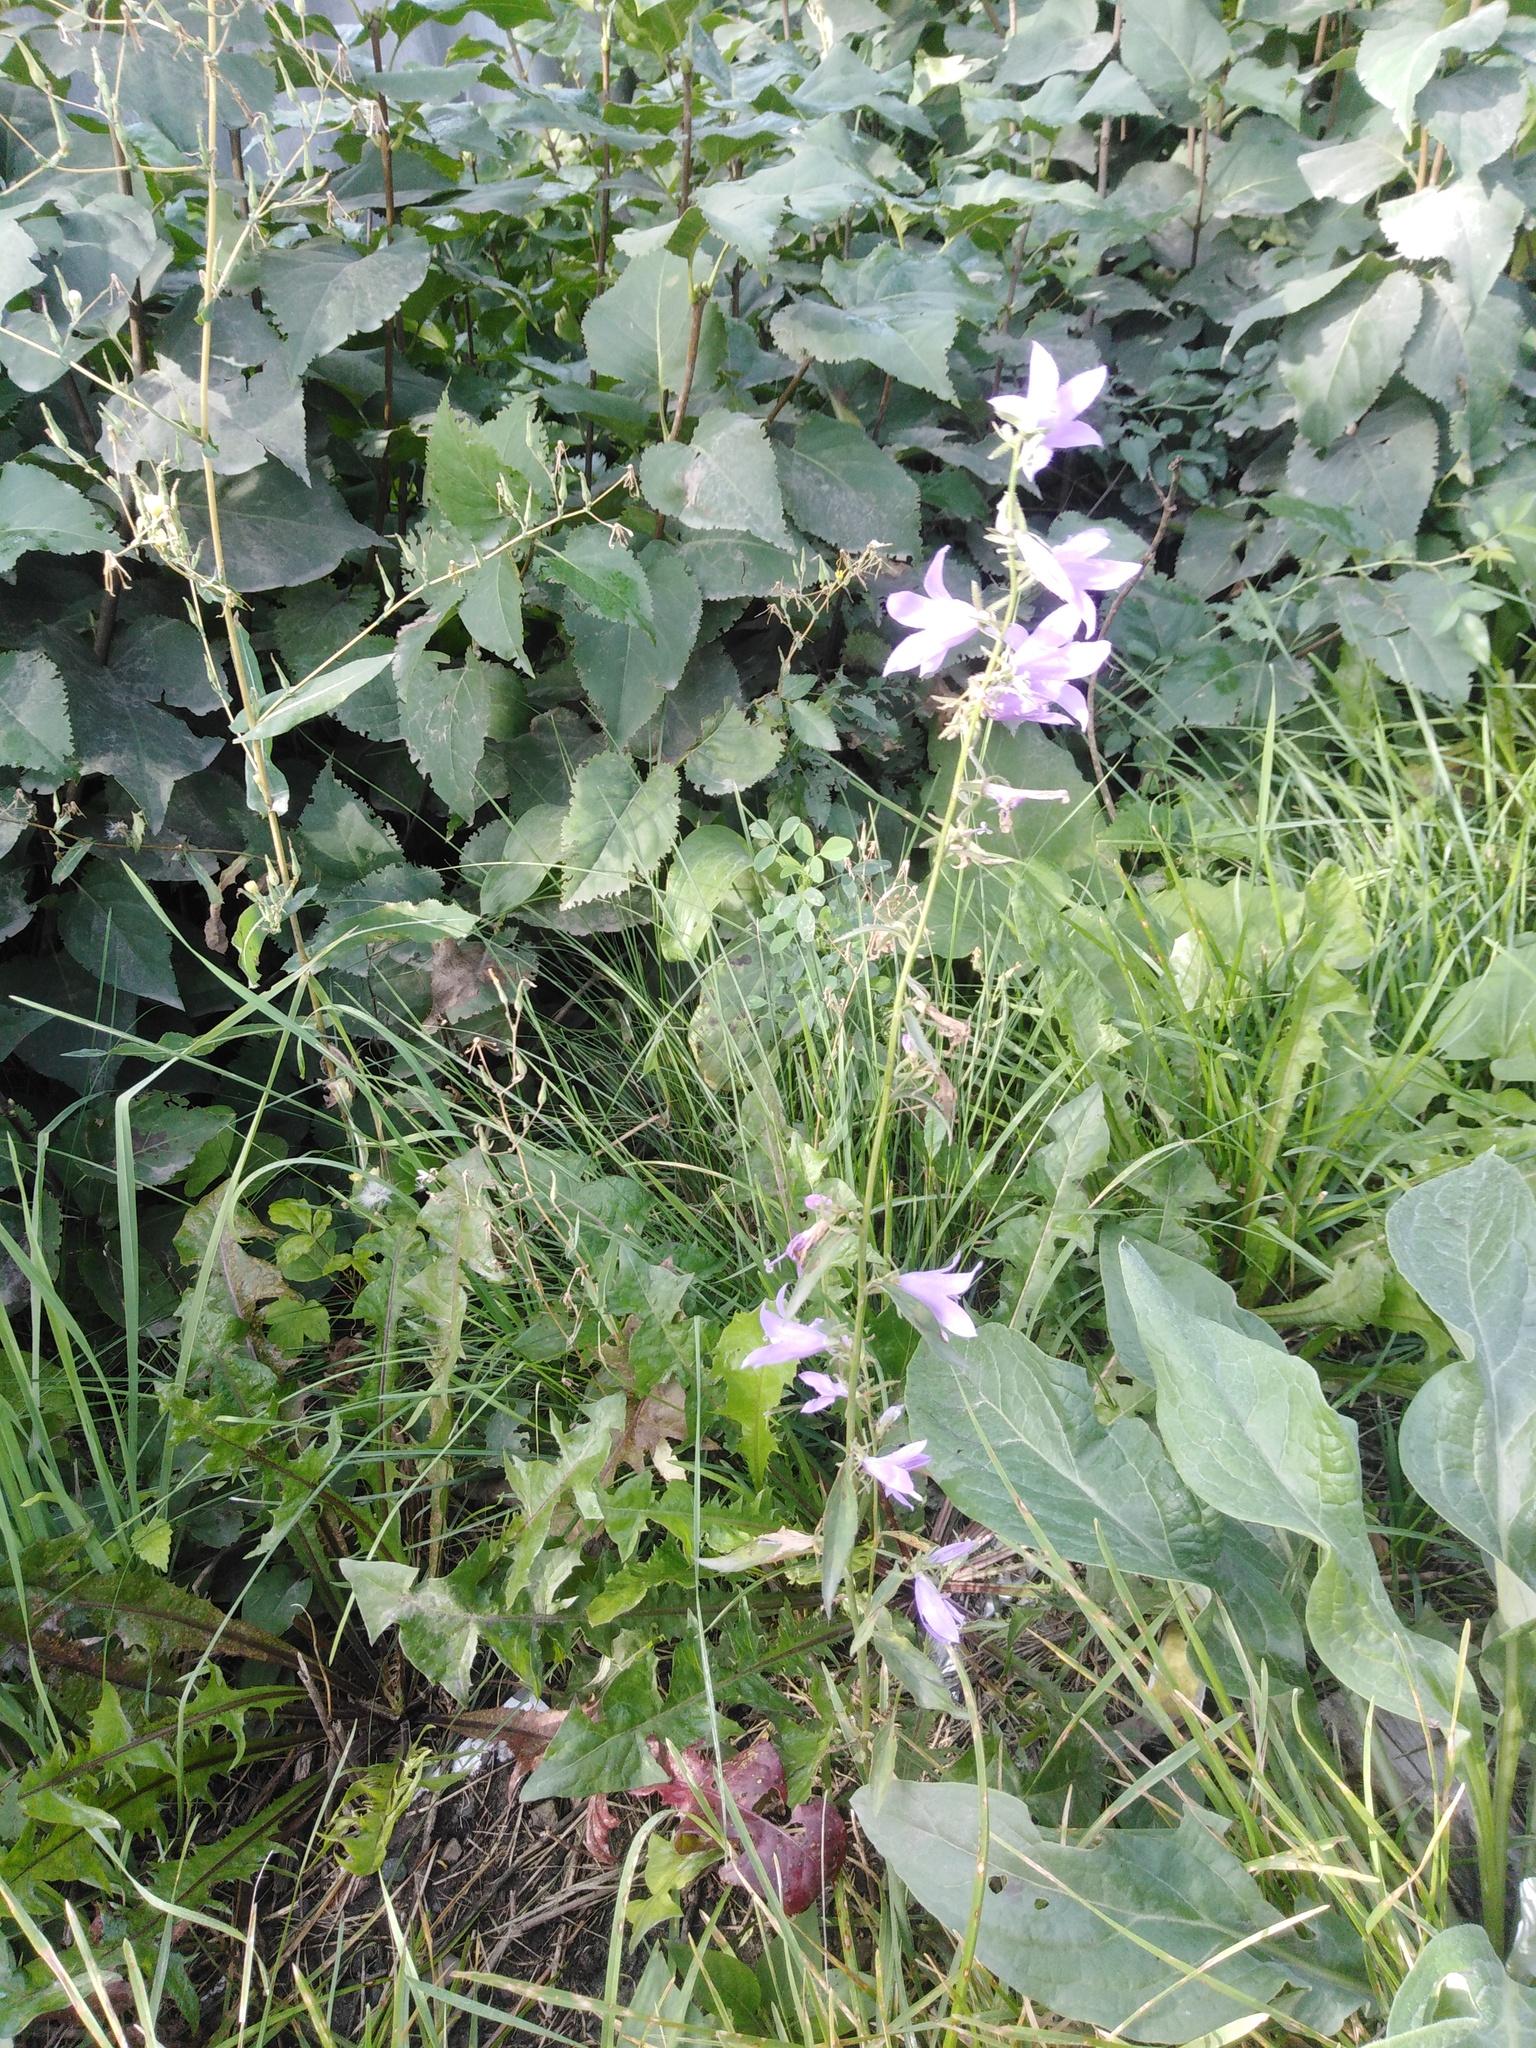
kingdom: Plantae
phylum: Tracheophyta
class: Magnoliopsida
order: Asterales
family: Campanulaceae
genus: Campanula
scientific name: Campanula rapunculoides
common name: Creeping bellflower
